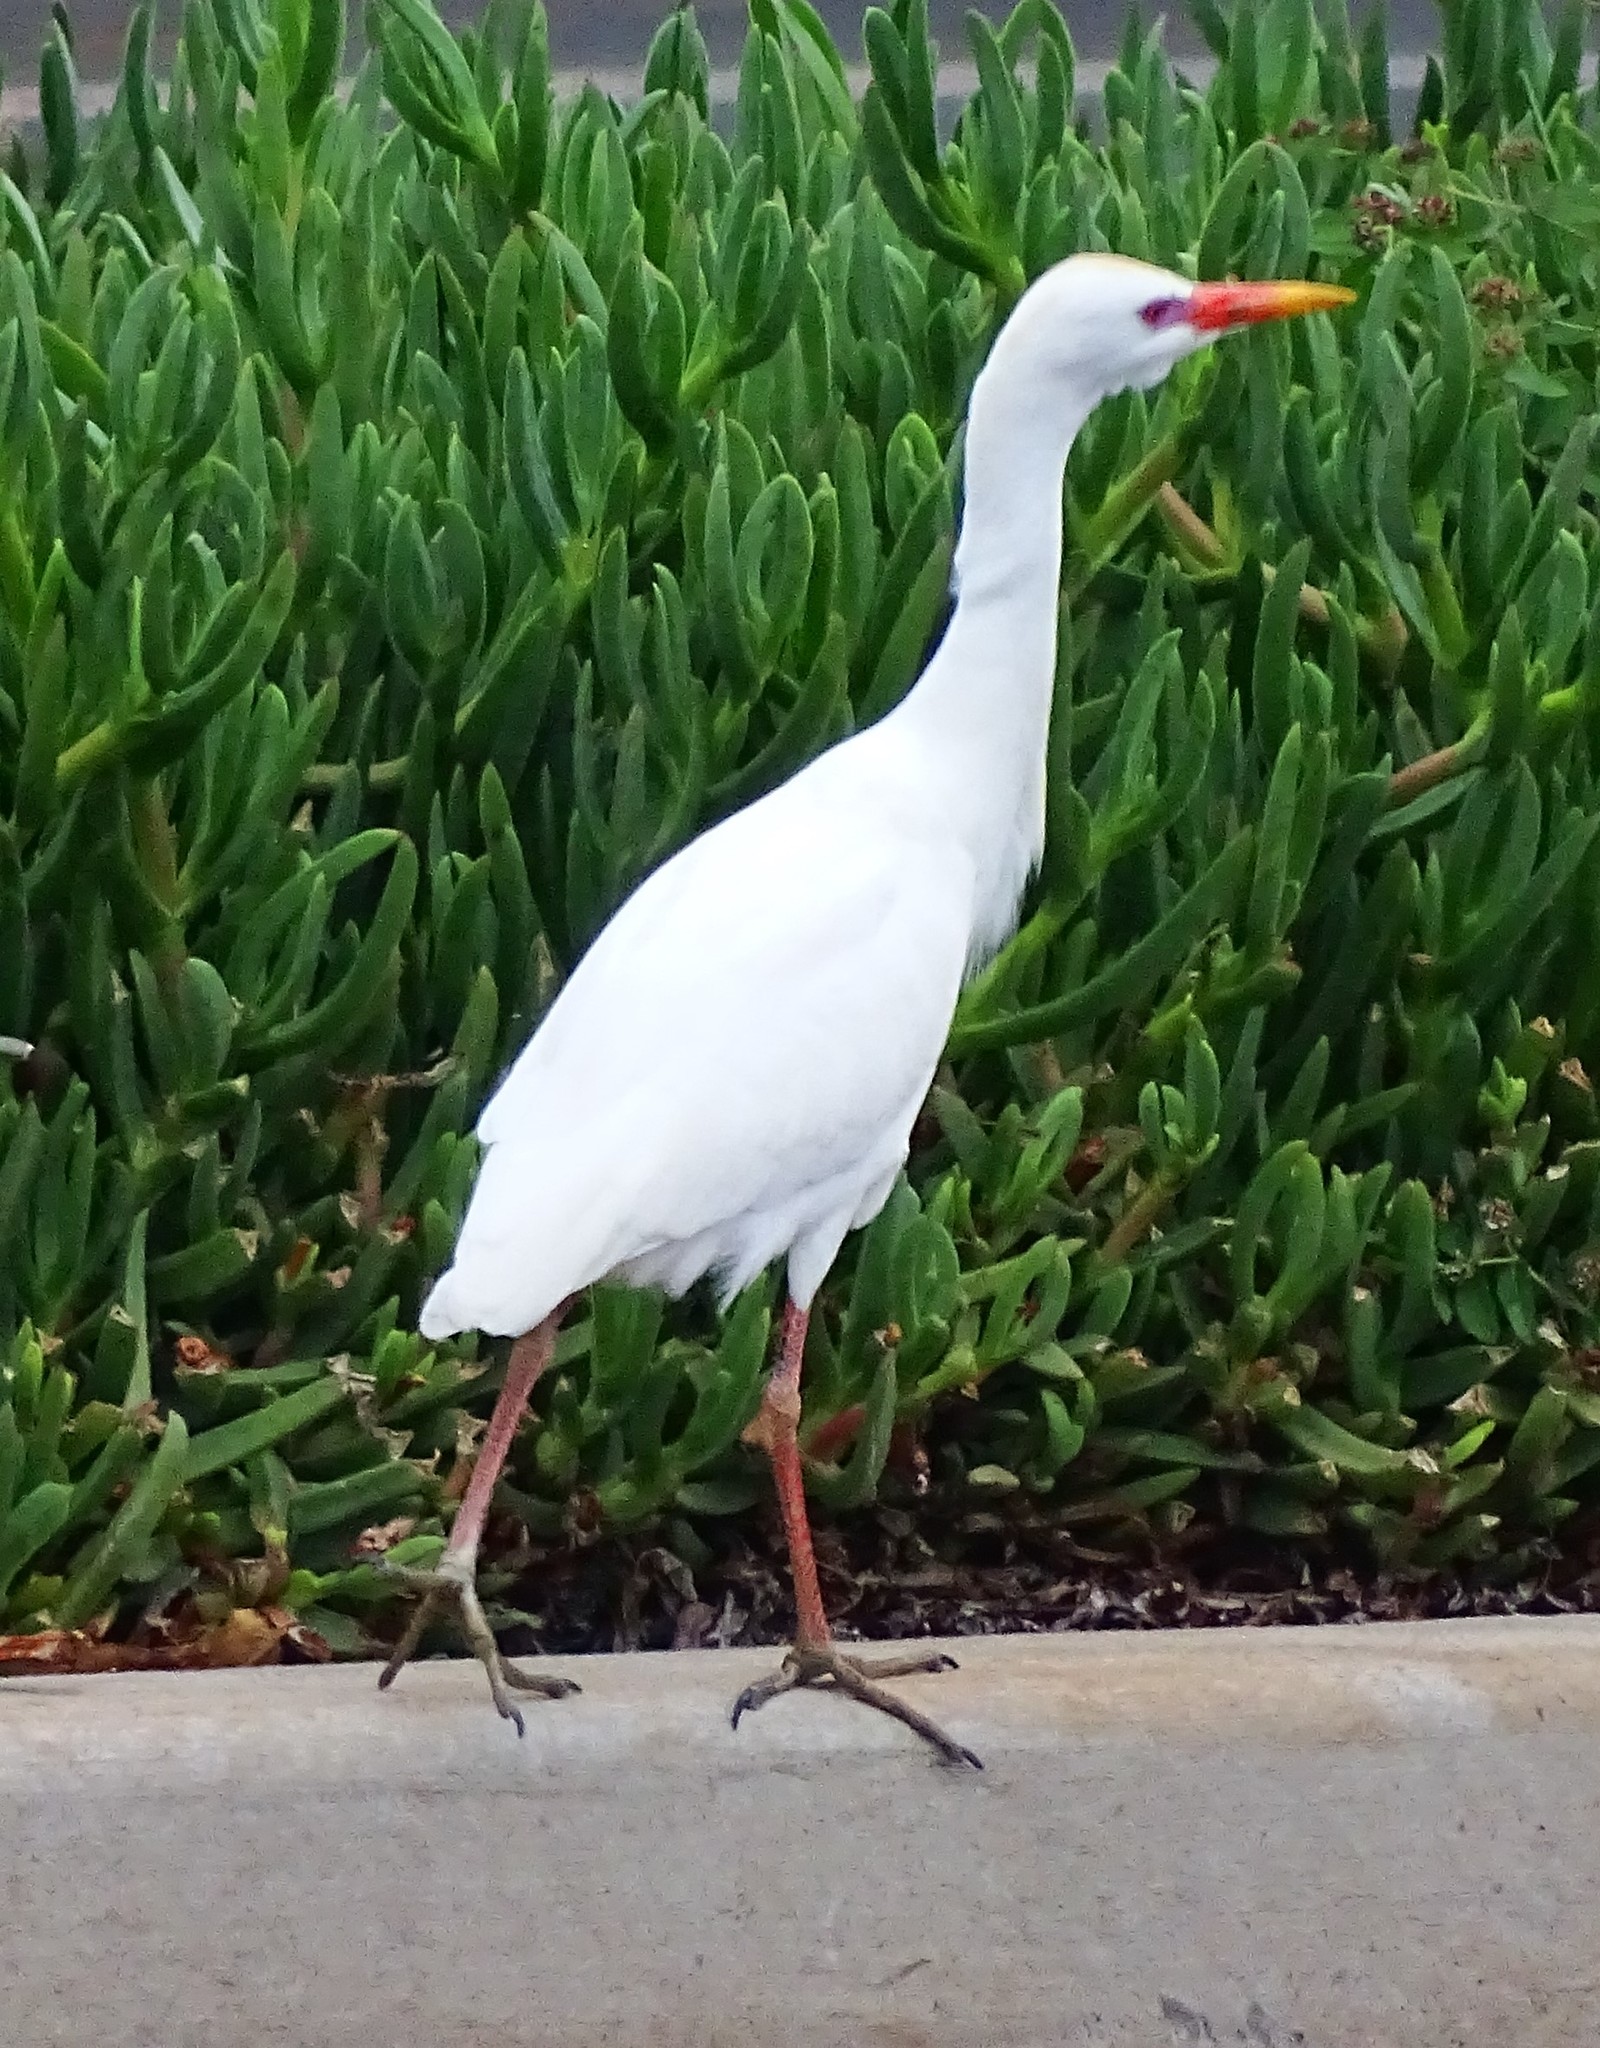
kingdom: Animalia
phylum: Chordata
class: Aves
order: Pelecaniformes
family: Ardeidae
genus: Bubulcus
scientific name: Bubulcus ibis
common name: Cattle egret
